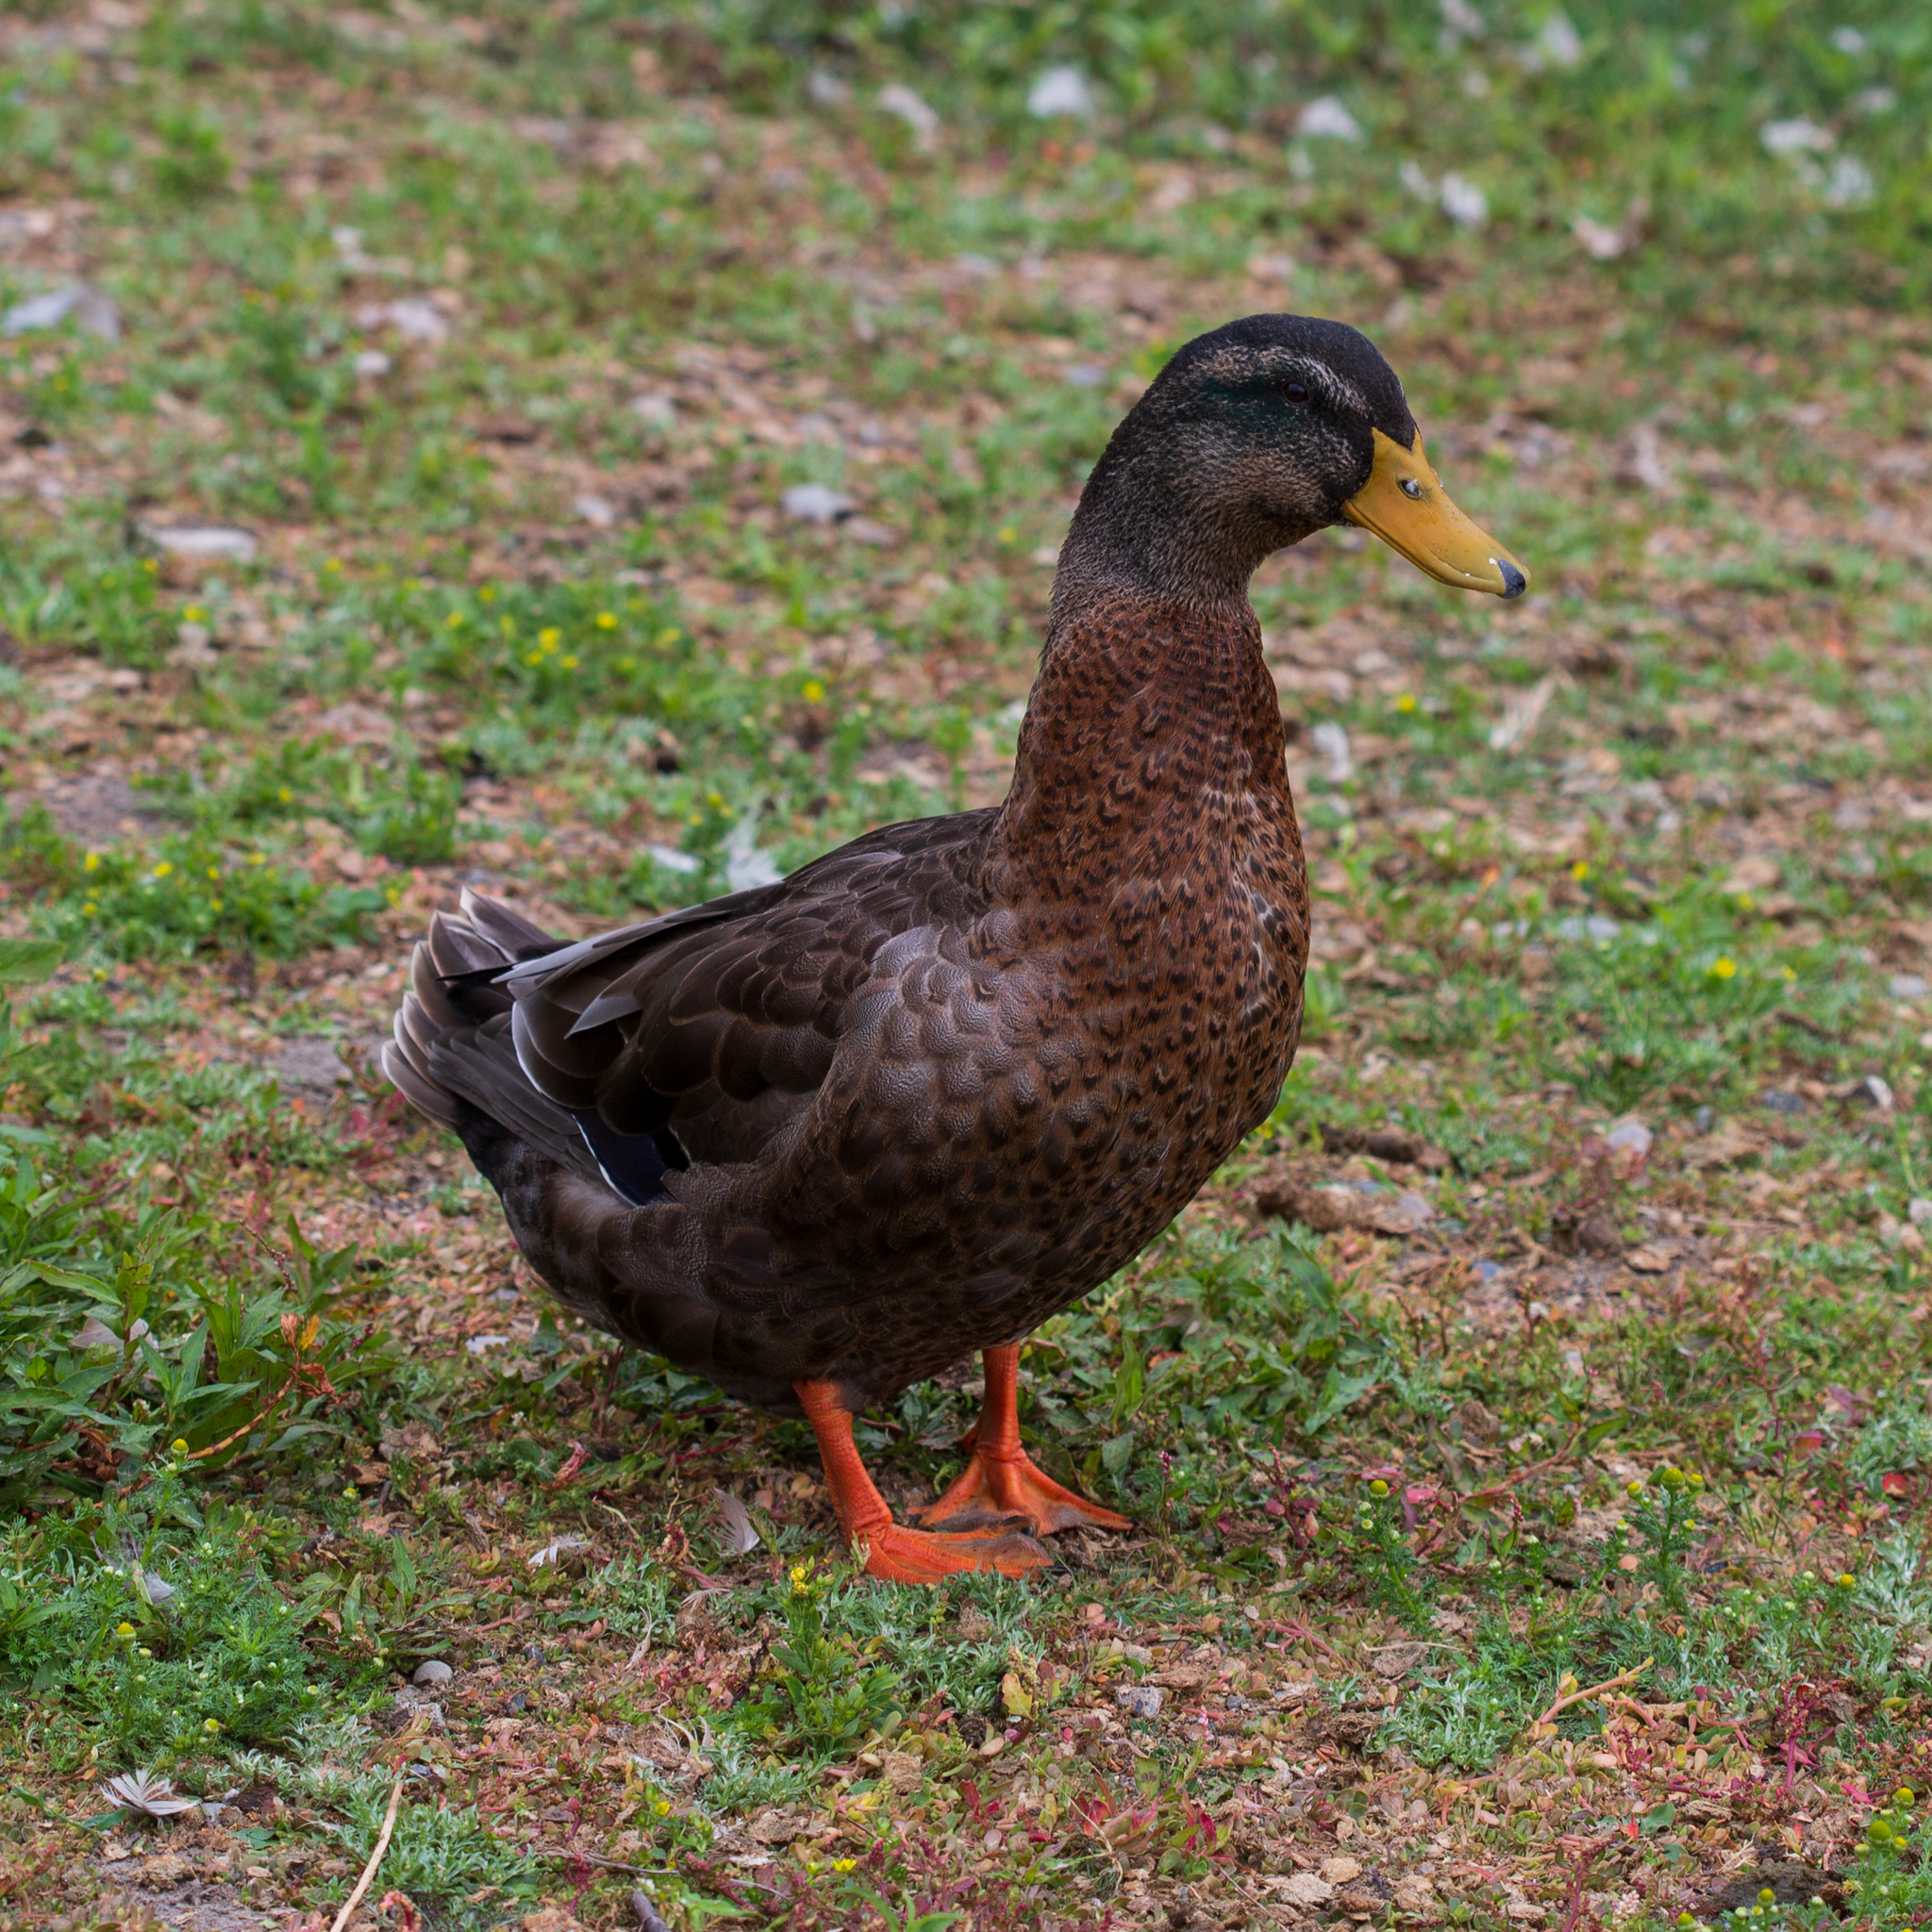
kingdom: Animalia
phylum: Chordata
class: Aves
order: Anseriformes
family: Anatidae
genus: Anas
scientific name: Anas platyrhynchos
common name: Mallard
